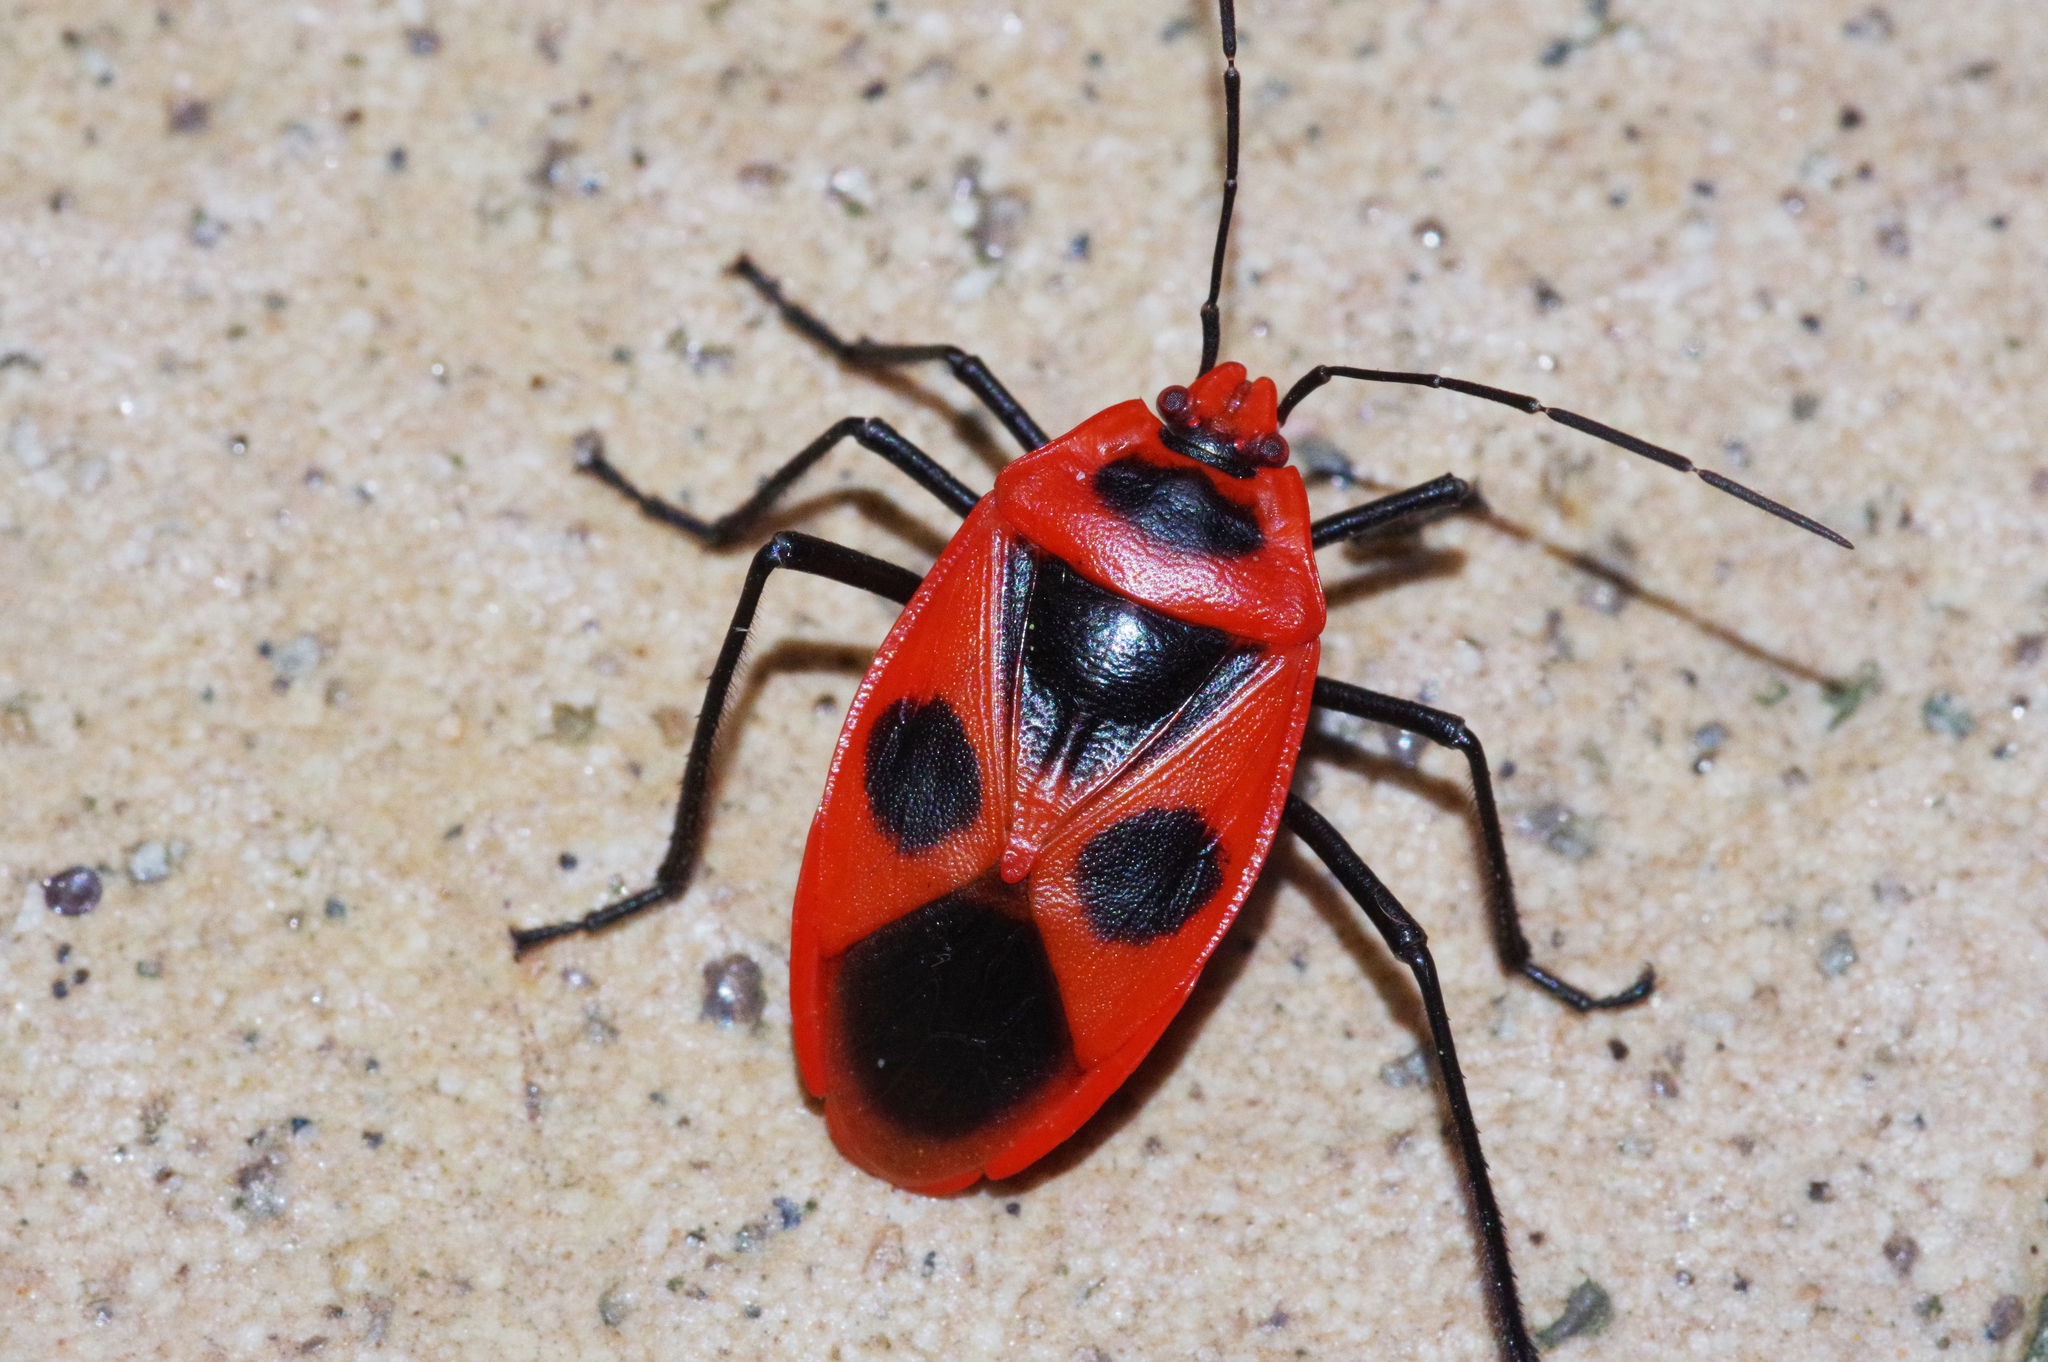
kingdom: Animalia
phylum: Arthropoda
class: Insecta
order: Hemiptera
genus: Parastrachia
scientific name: Parastrachia
